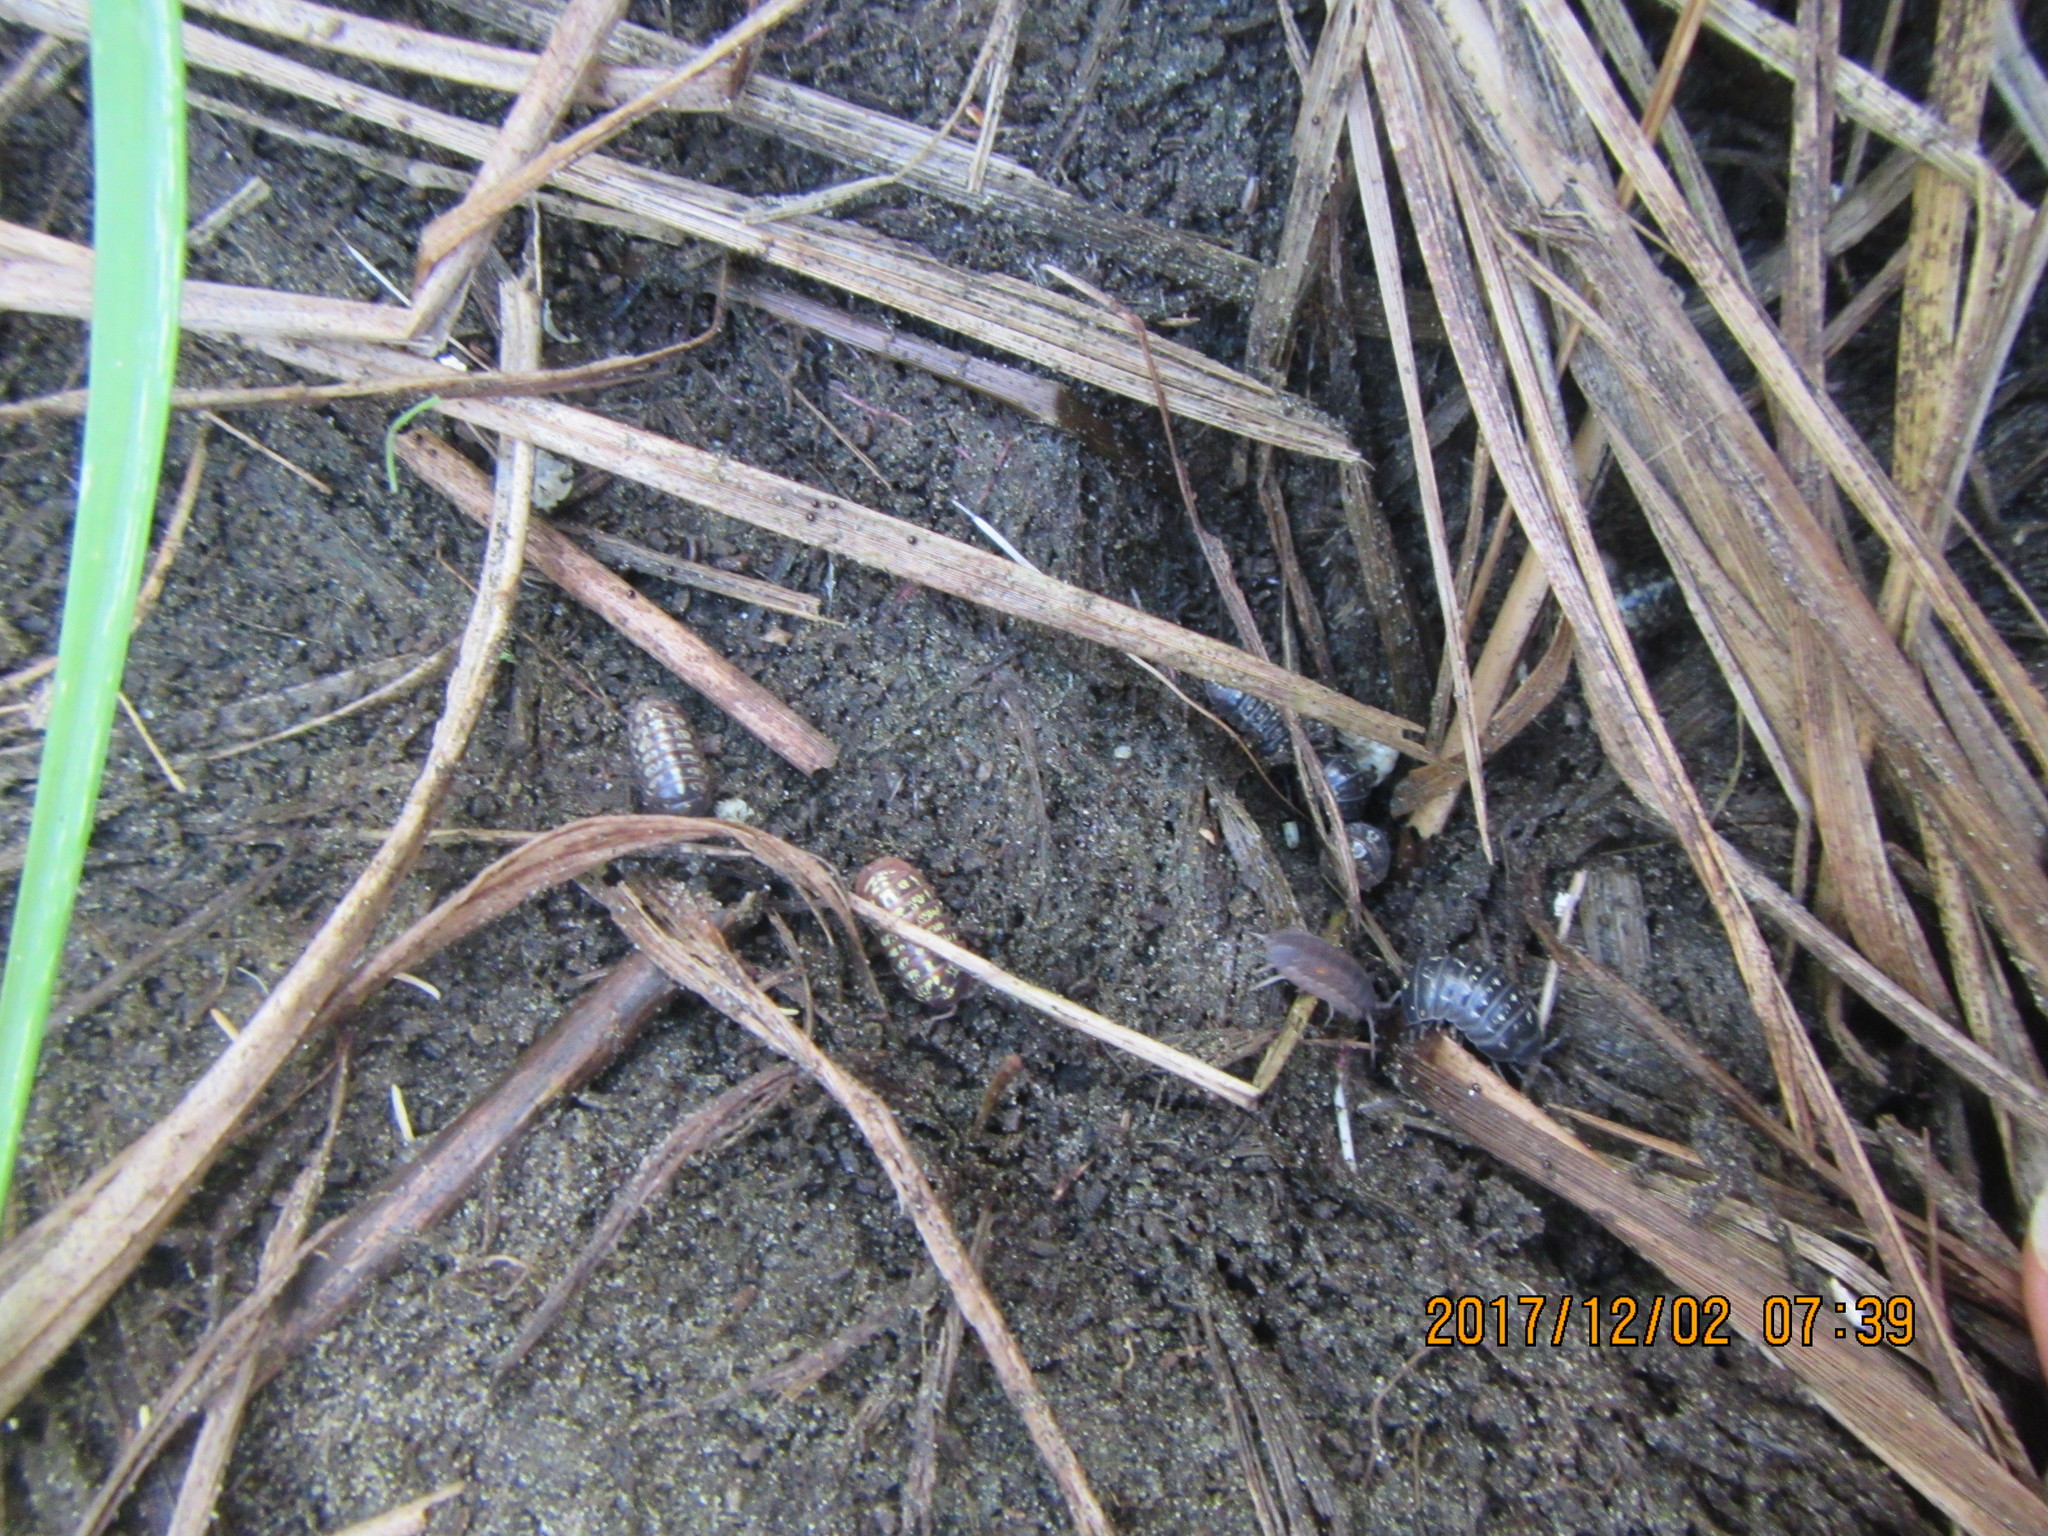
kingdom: Animalia
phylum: Arthropoda
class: Malacostraca
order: Isopoda
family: Armadillidiidae
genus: Armadillidium
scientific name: Armadillidium vulgare
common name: Common pill woodlouse
